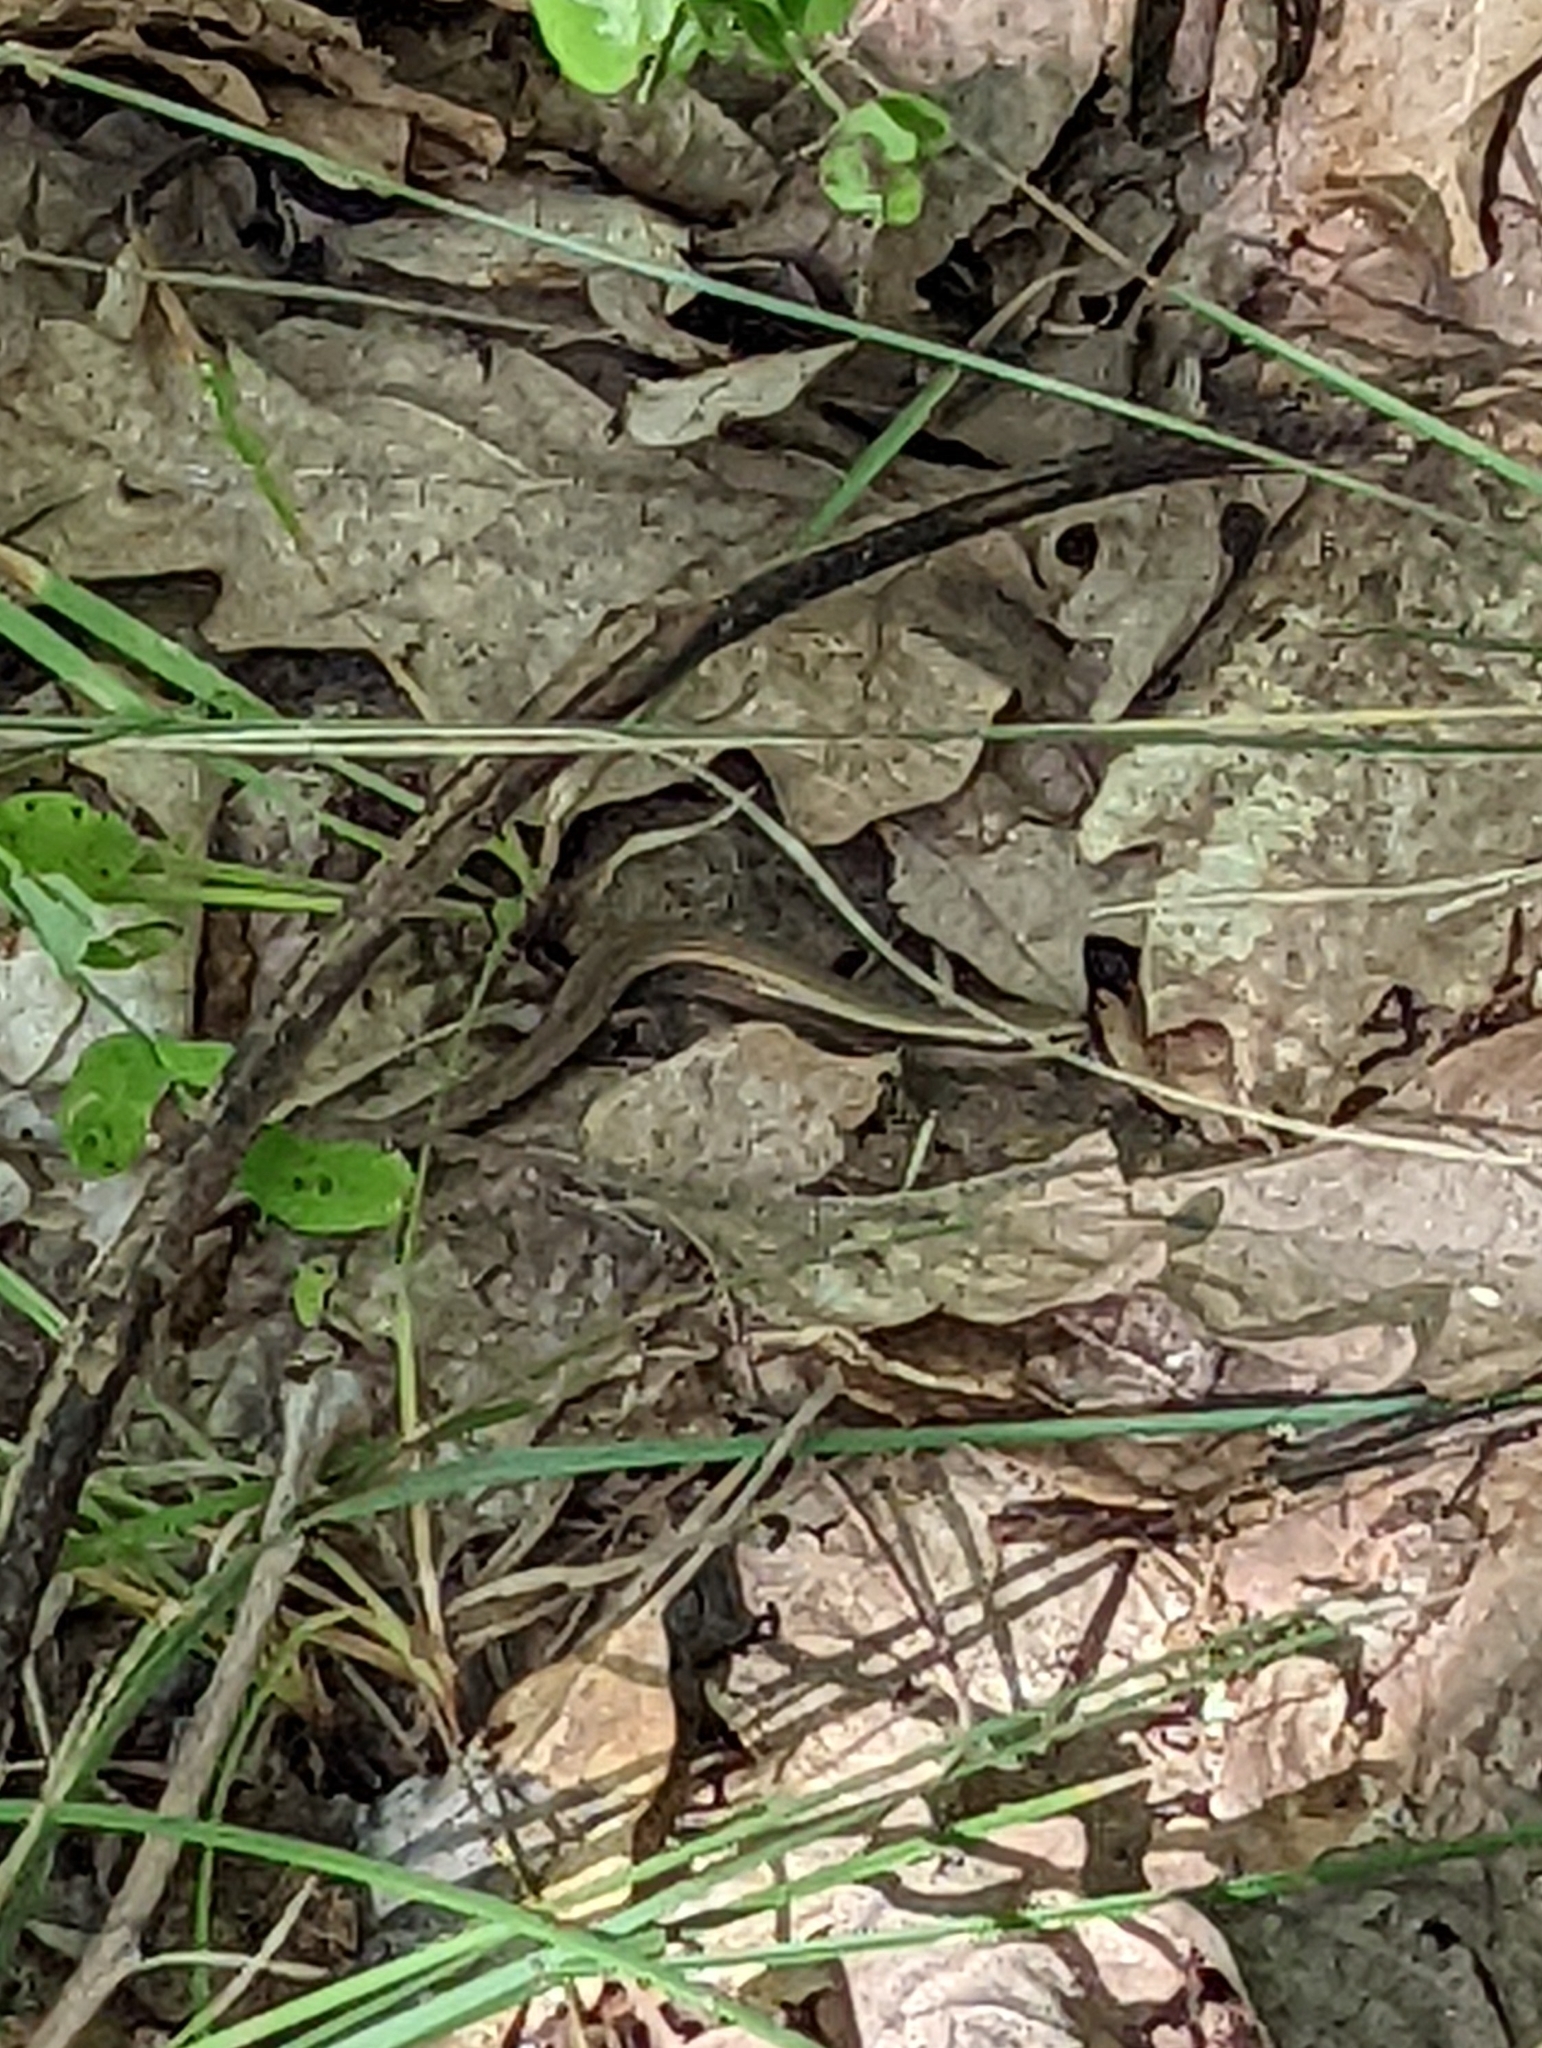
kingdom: Animalia
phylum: Chordata
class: Squamata
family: Scincidae
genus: Ablepharus
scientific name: Ablepharus kitaibelii
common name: Juniper skink
